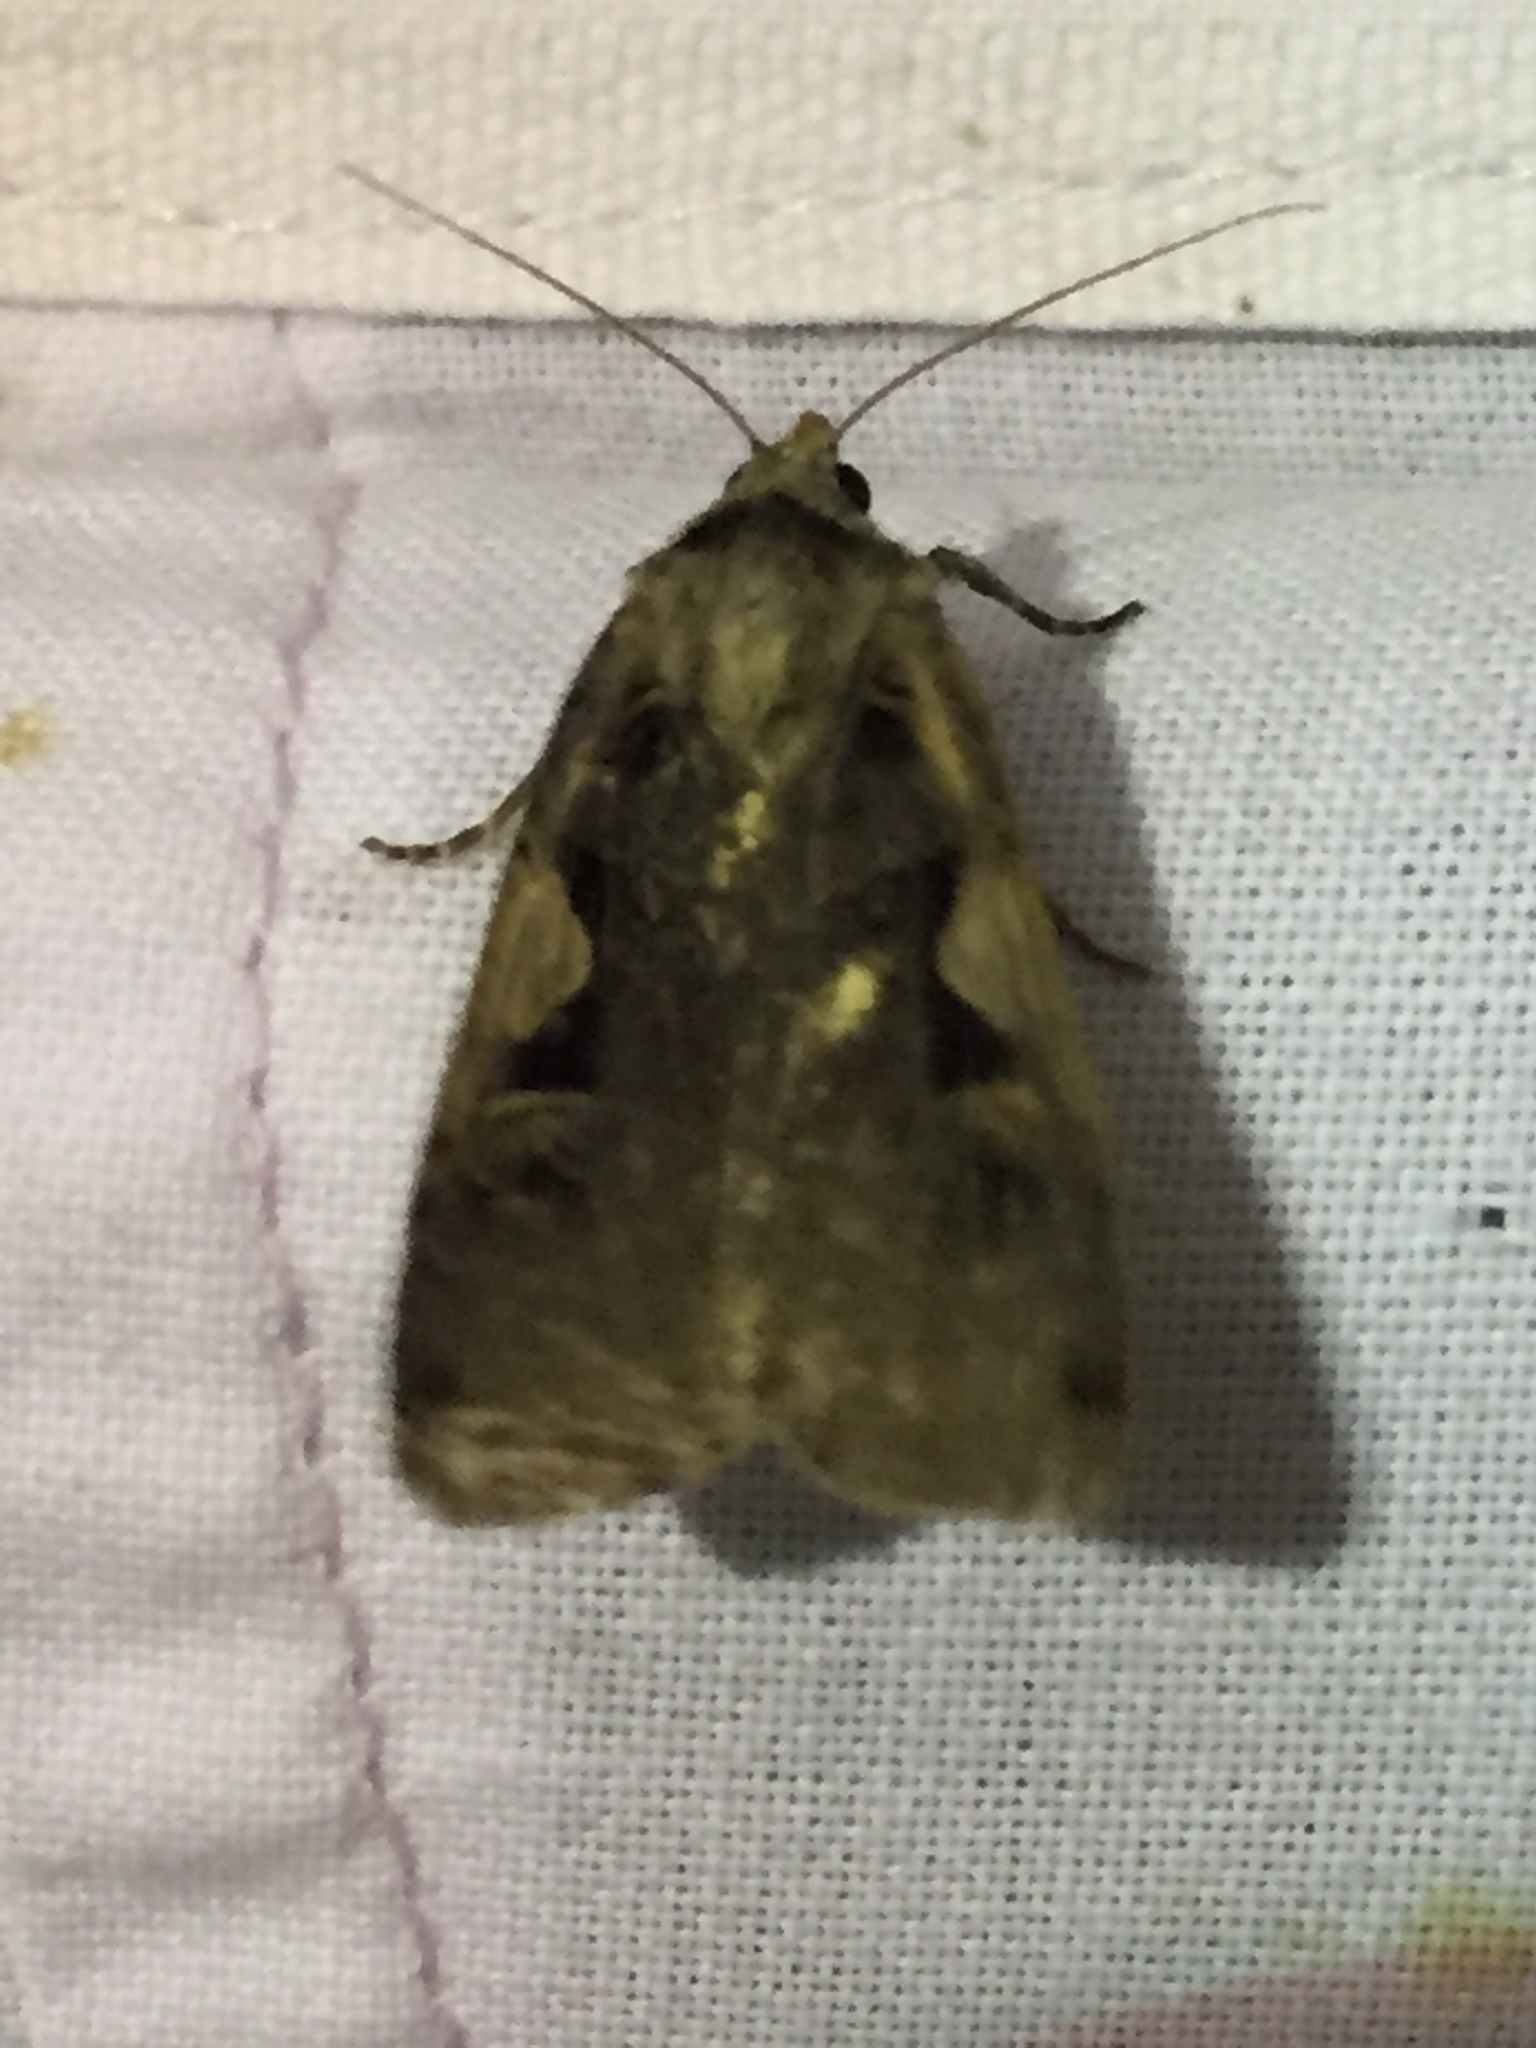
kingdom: Animalia
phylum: Arthropoda
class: Insecta
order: Lepidoptera
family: Noctuidae
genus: Xestia
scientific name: Xestia c-nigrum
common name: Setaceous hebrew character
